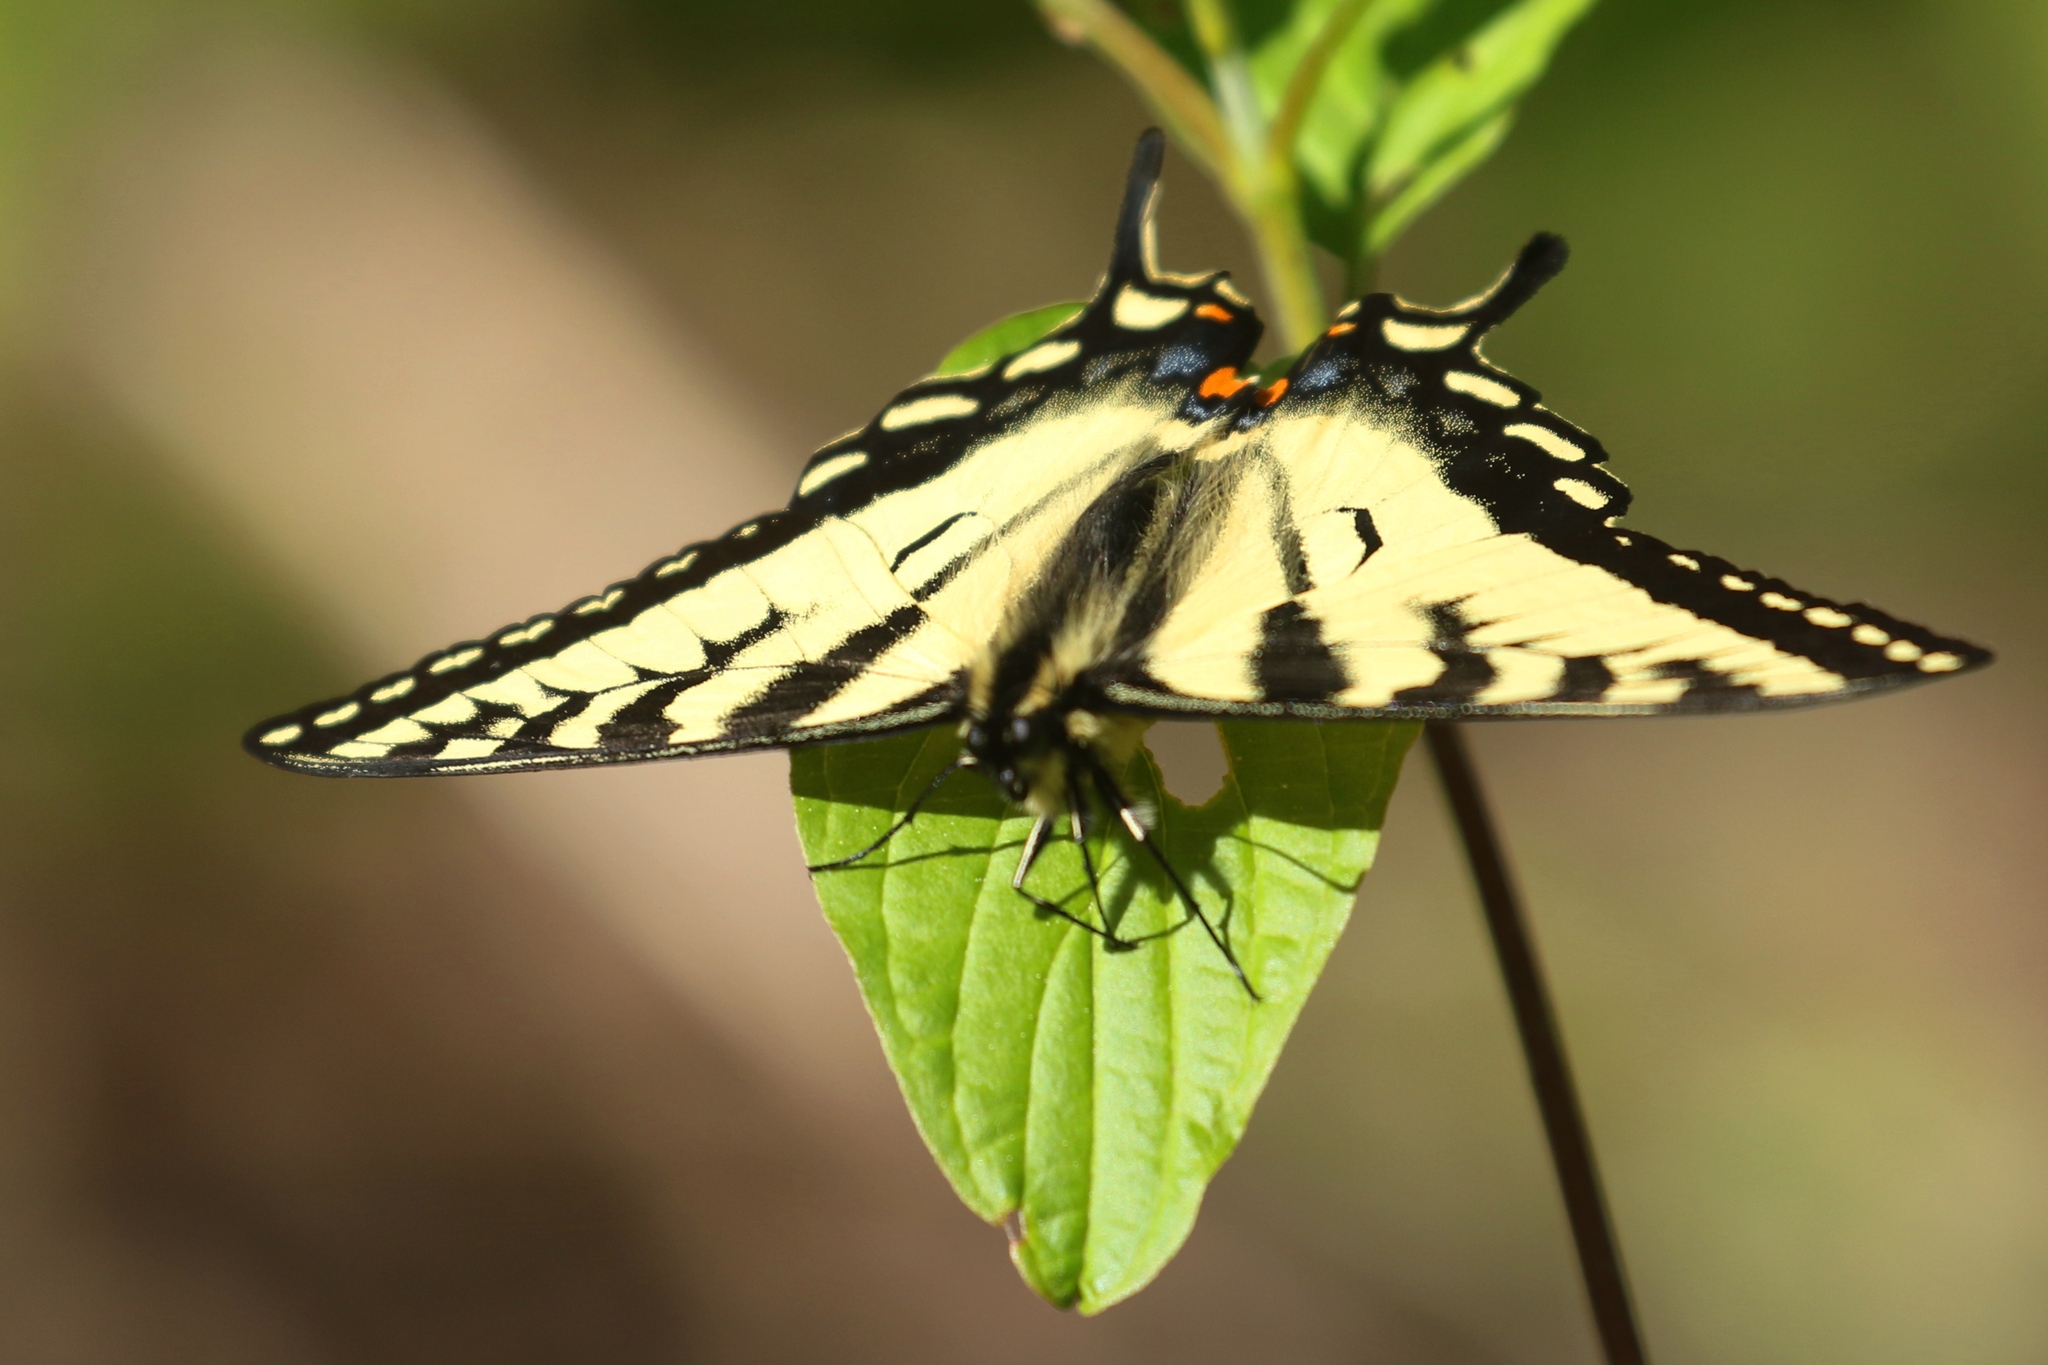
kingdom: Animalia
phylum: Arthropoda
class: Insecta
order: Lepidoptera
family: Papilionidae
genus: Papilio
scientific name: Papilio canadensis
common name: Canadian tiger swallowtail
